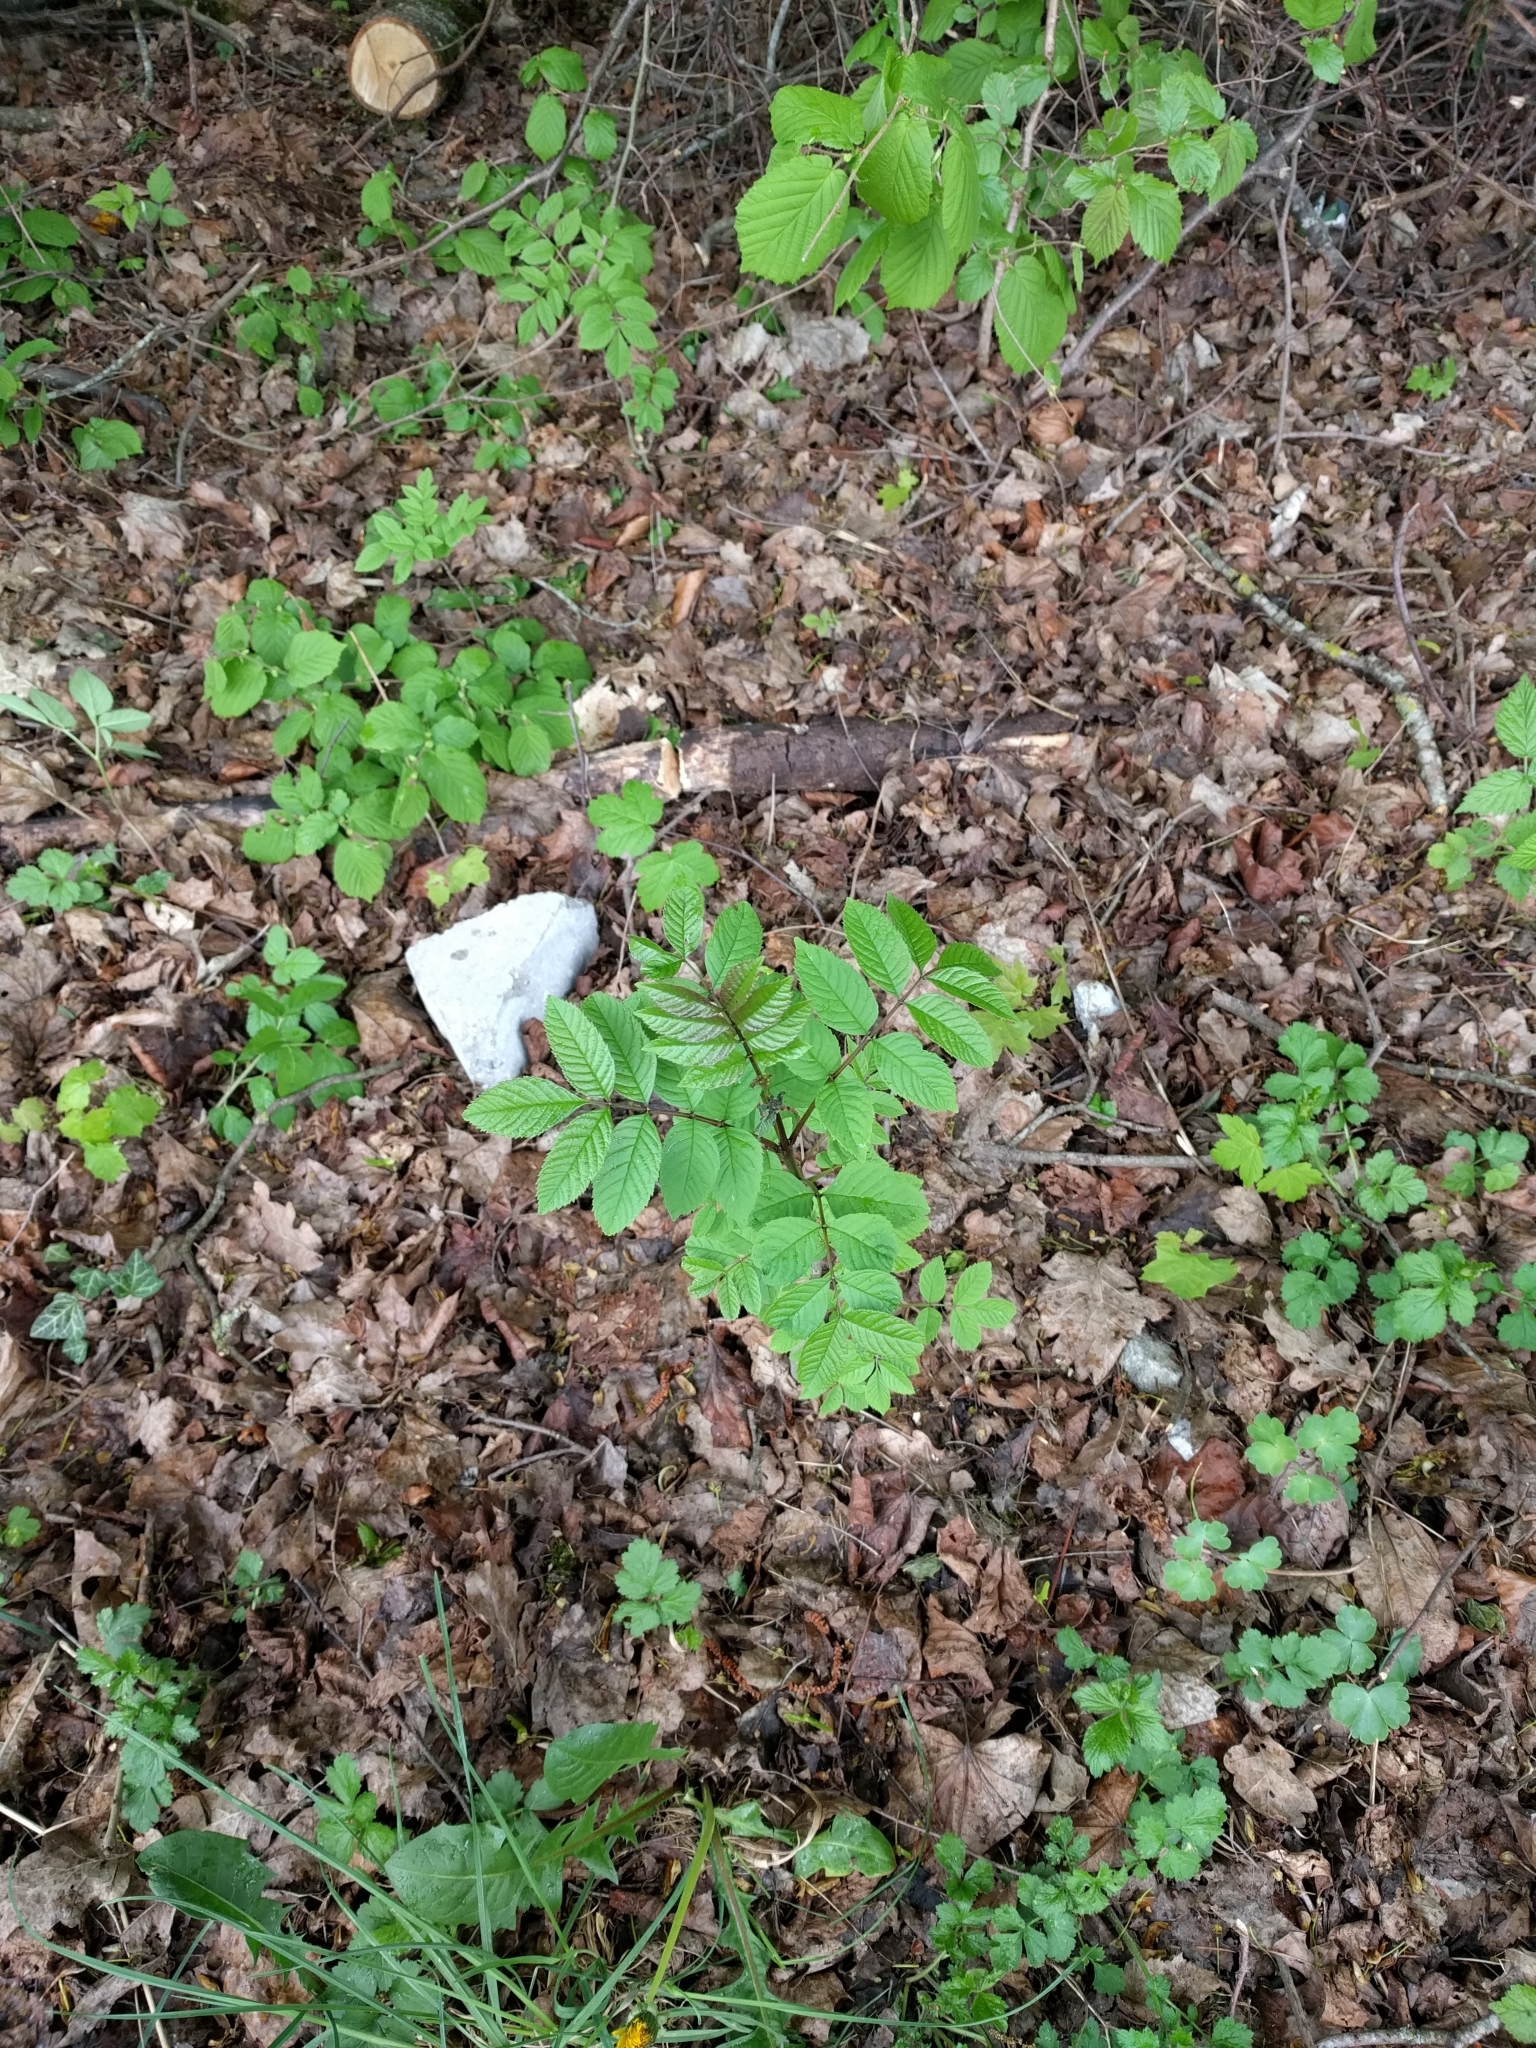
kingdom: Plantae
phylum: Tracheophyta
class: Magnoliopsida
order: Lamiales
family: Oleaceae
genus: Fraxinus
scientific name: Fraxinus excelsior
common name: European ash
